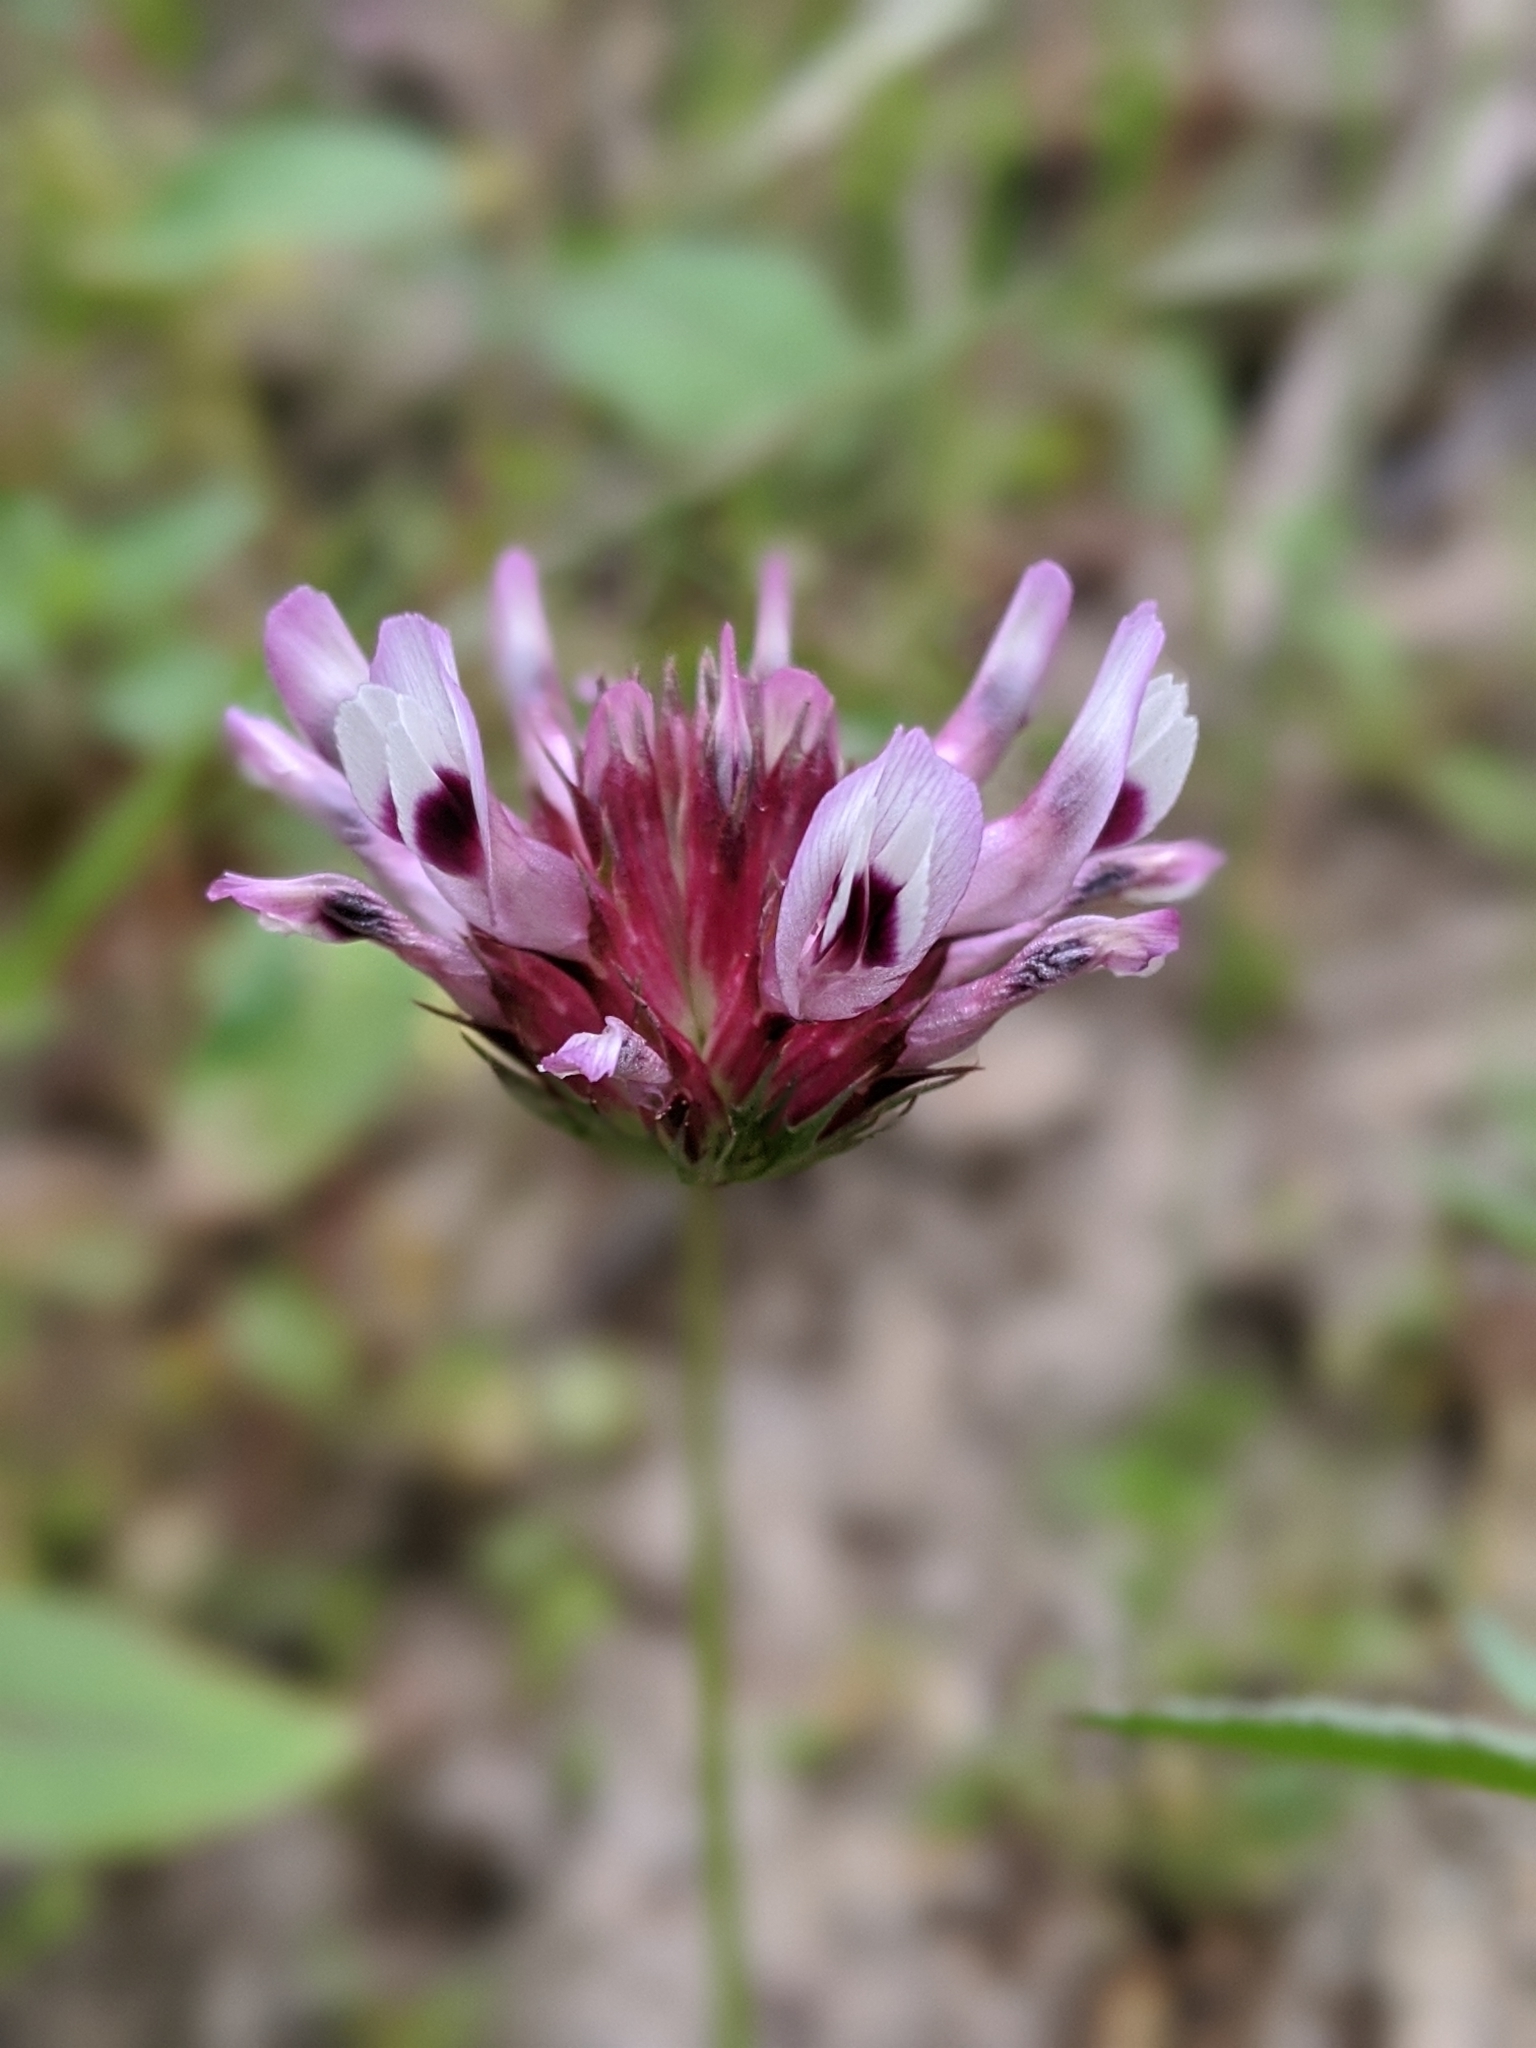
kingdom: Plantae
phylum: Tracheophyta
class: Magnoliopsida
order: Fabales
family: Fabaceae
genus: Trifolium
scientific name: Trifolium willdenovii
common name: Tomcat clover
